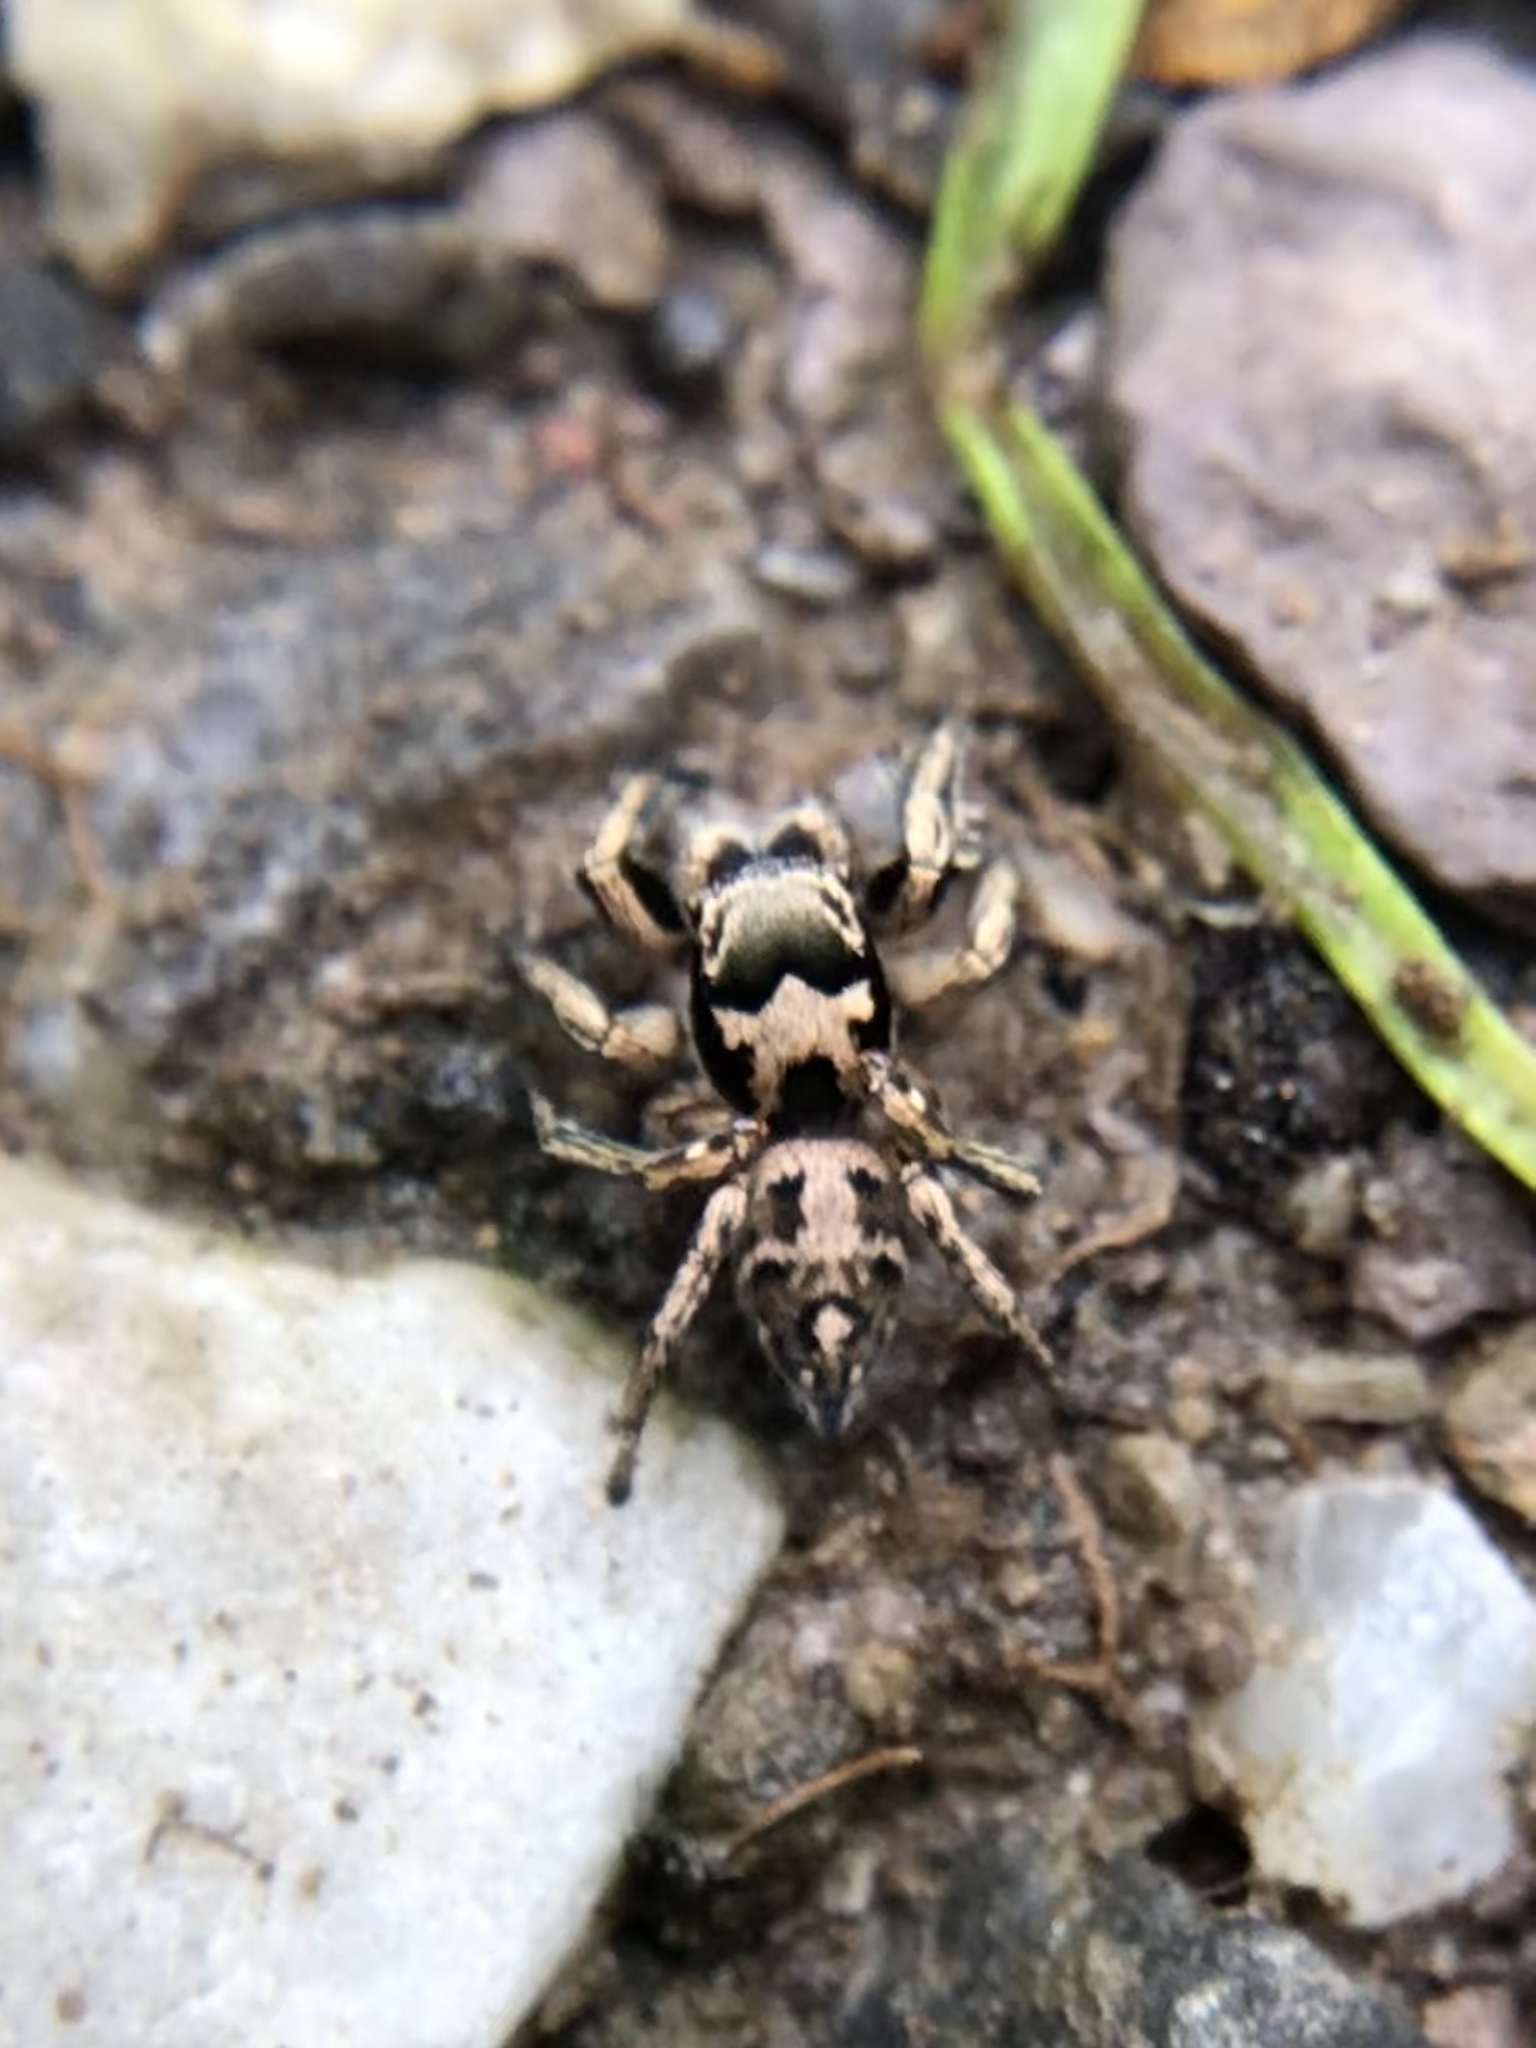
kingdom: Animalia
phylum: Arthropoda
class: Arachnida
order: Araneae
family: Salticidae
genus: Habronattus
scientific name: Habronattus coecatus
